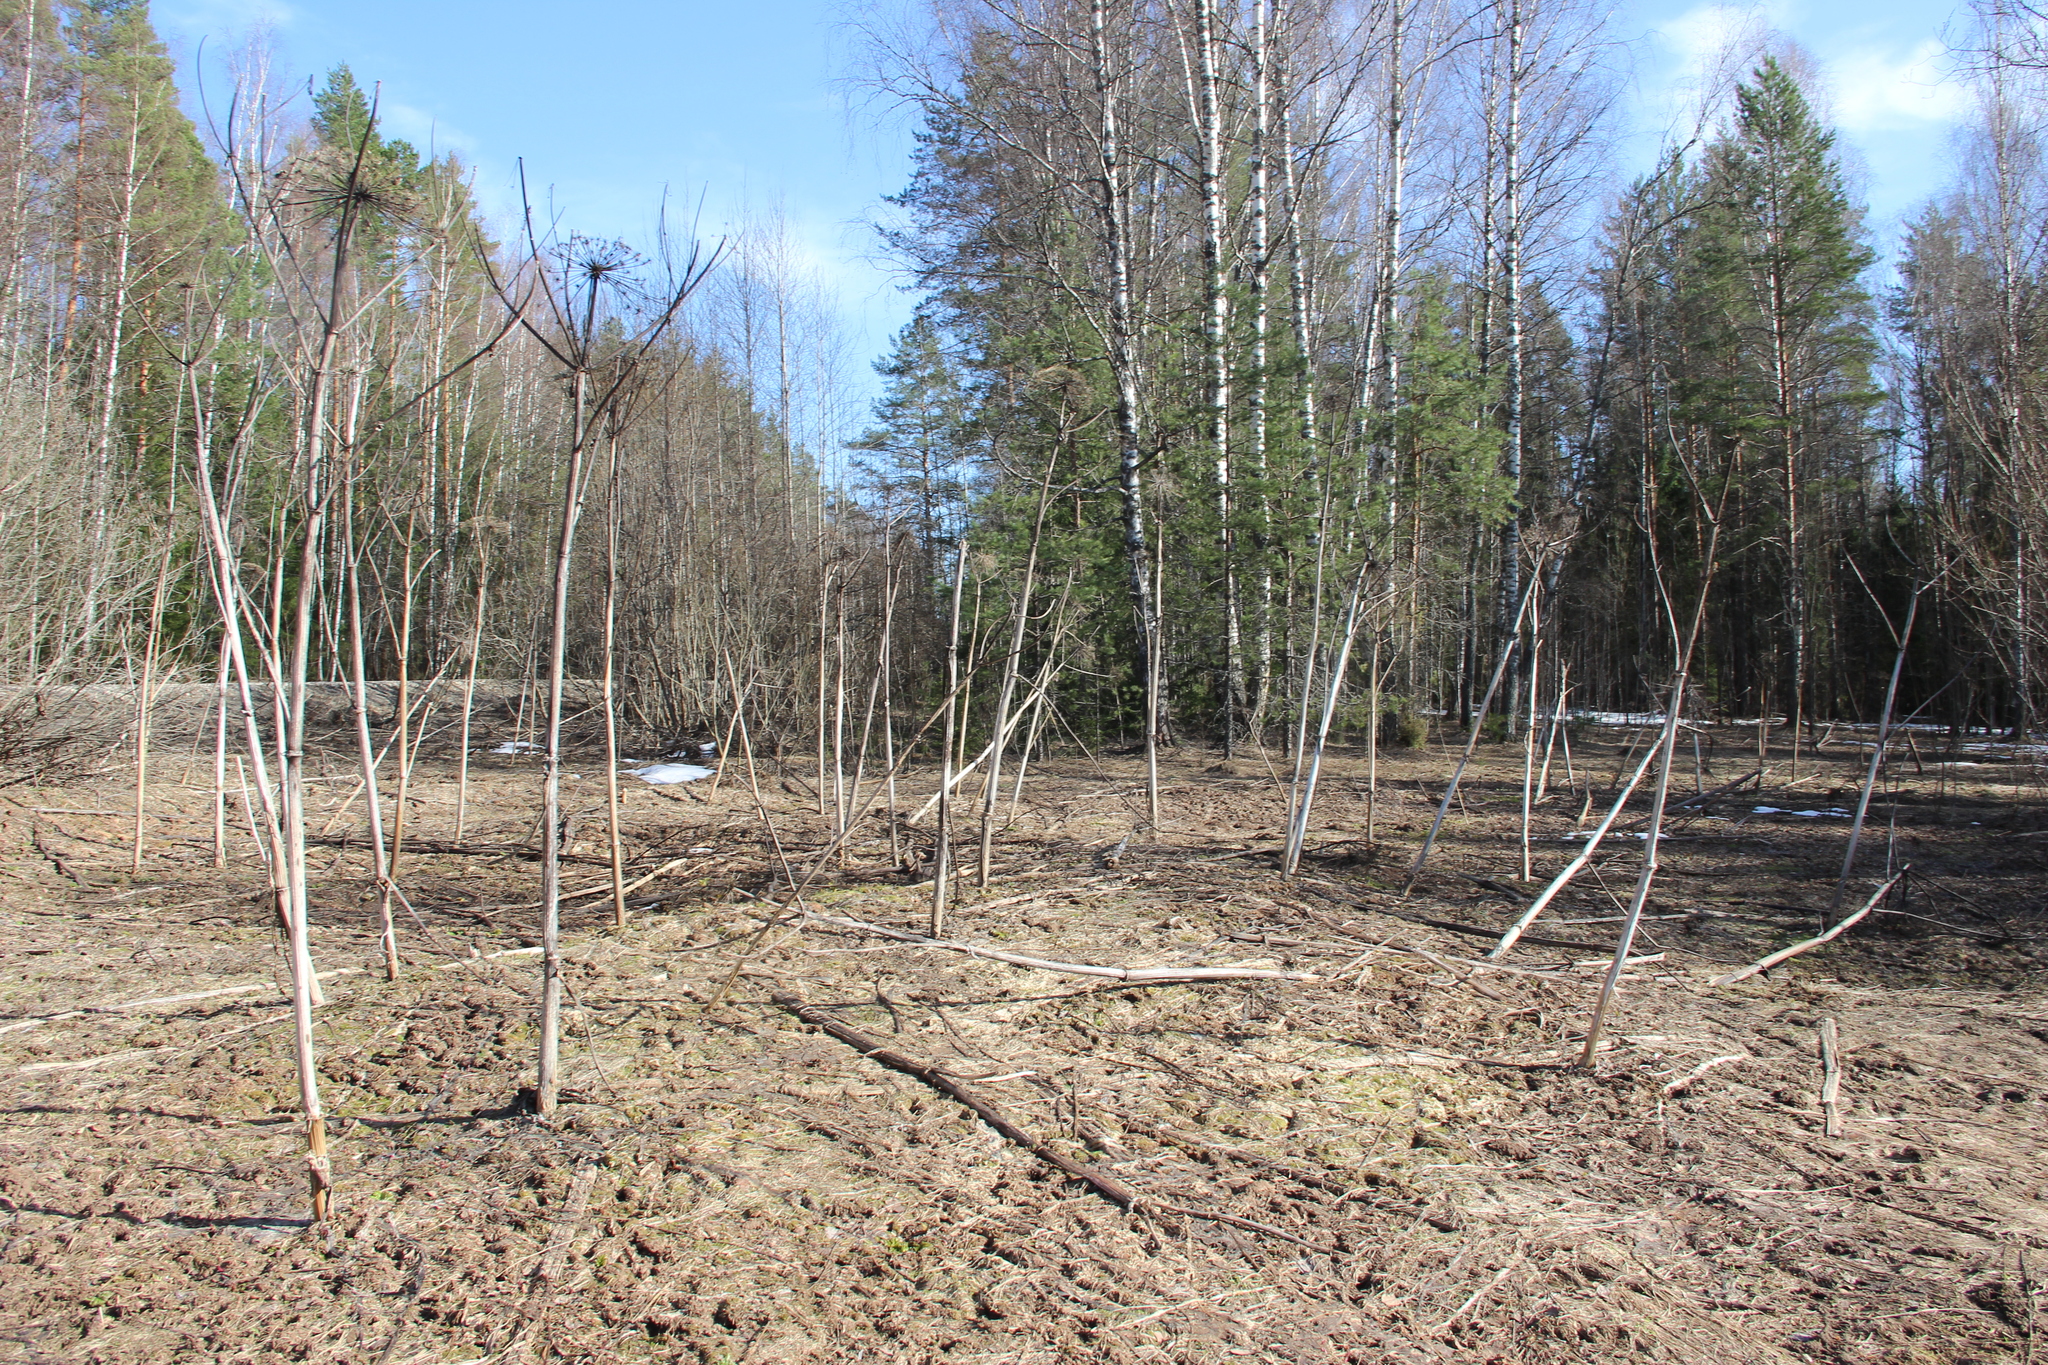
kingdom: Plantae
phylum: Tracheophyta
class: Magnoliopsida
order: Apiales
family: Apiaceae
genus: Heracleum
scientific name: Heracleum sosnowskyi
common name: Sosnowsky's hogweed
